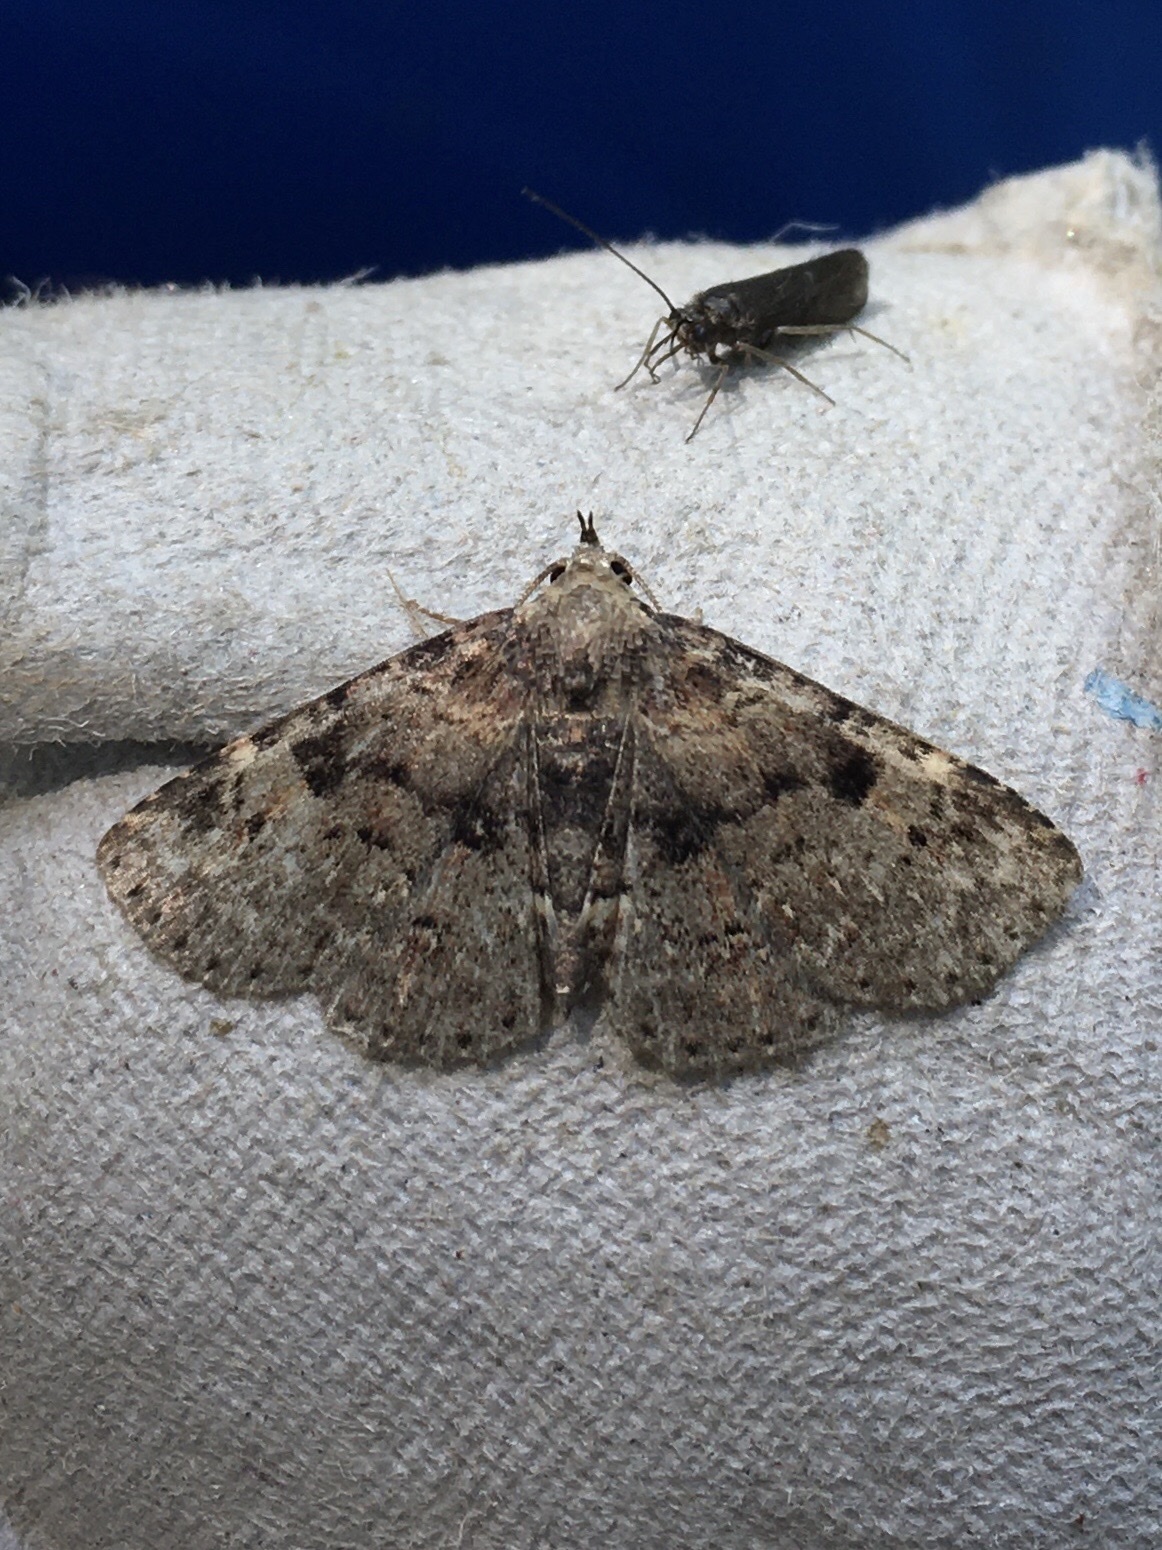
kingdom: Animalia
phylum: Arthropoda
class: Insecta
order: Lepidoptera
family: Erebidae
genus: Metalectra
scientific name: Metalectra quadrisignata
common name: Four-spotted fungus moth
